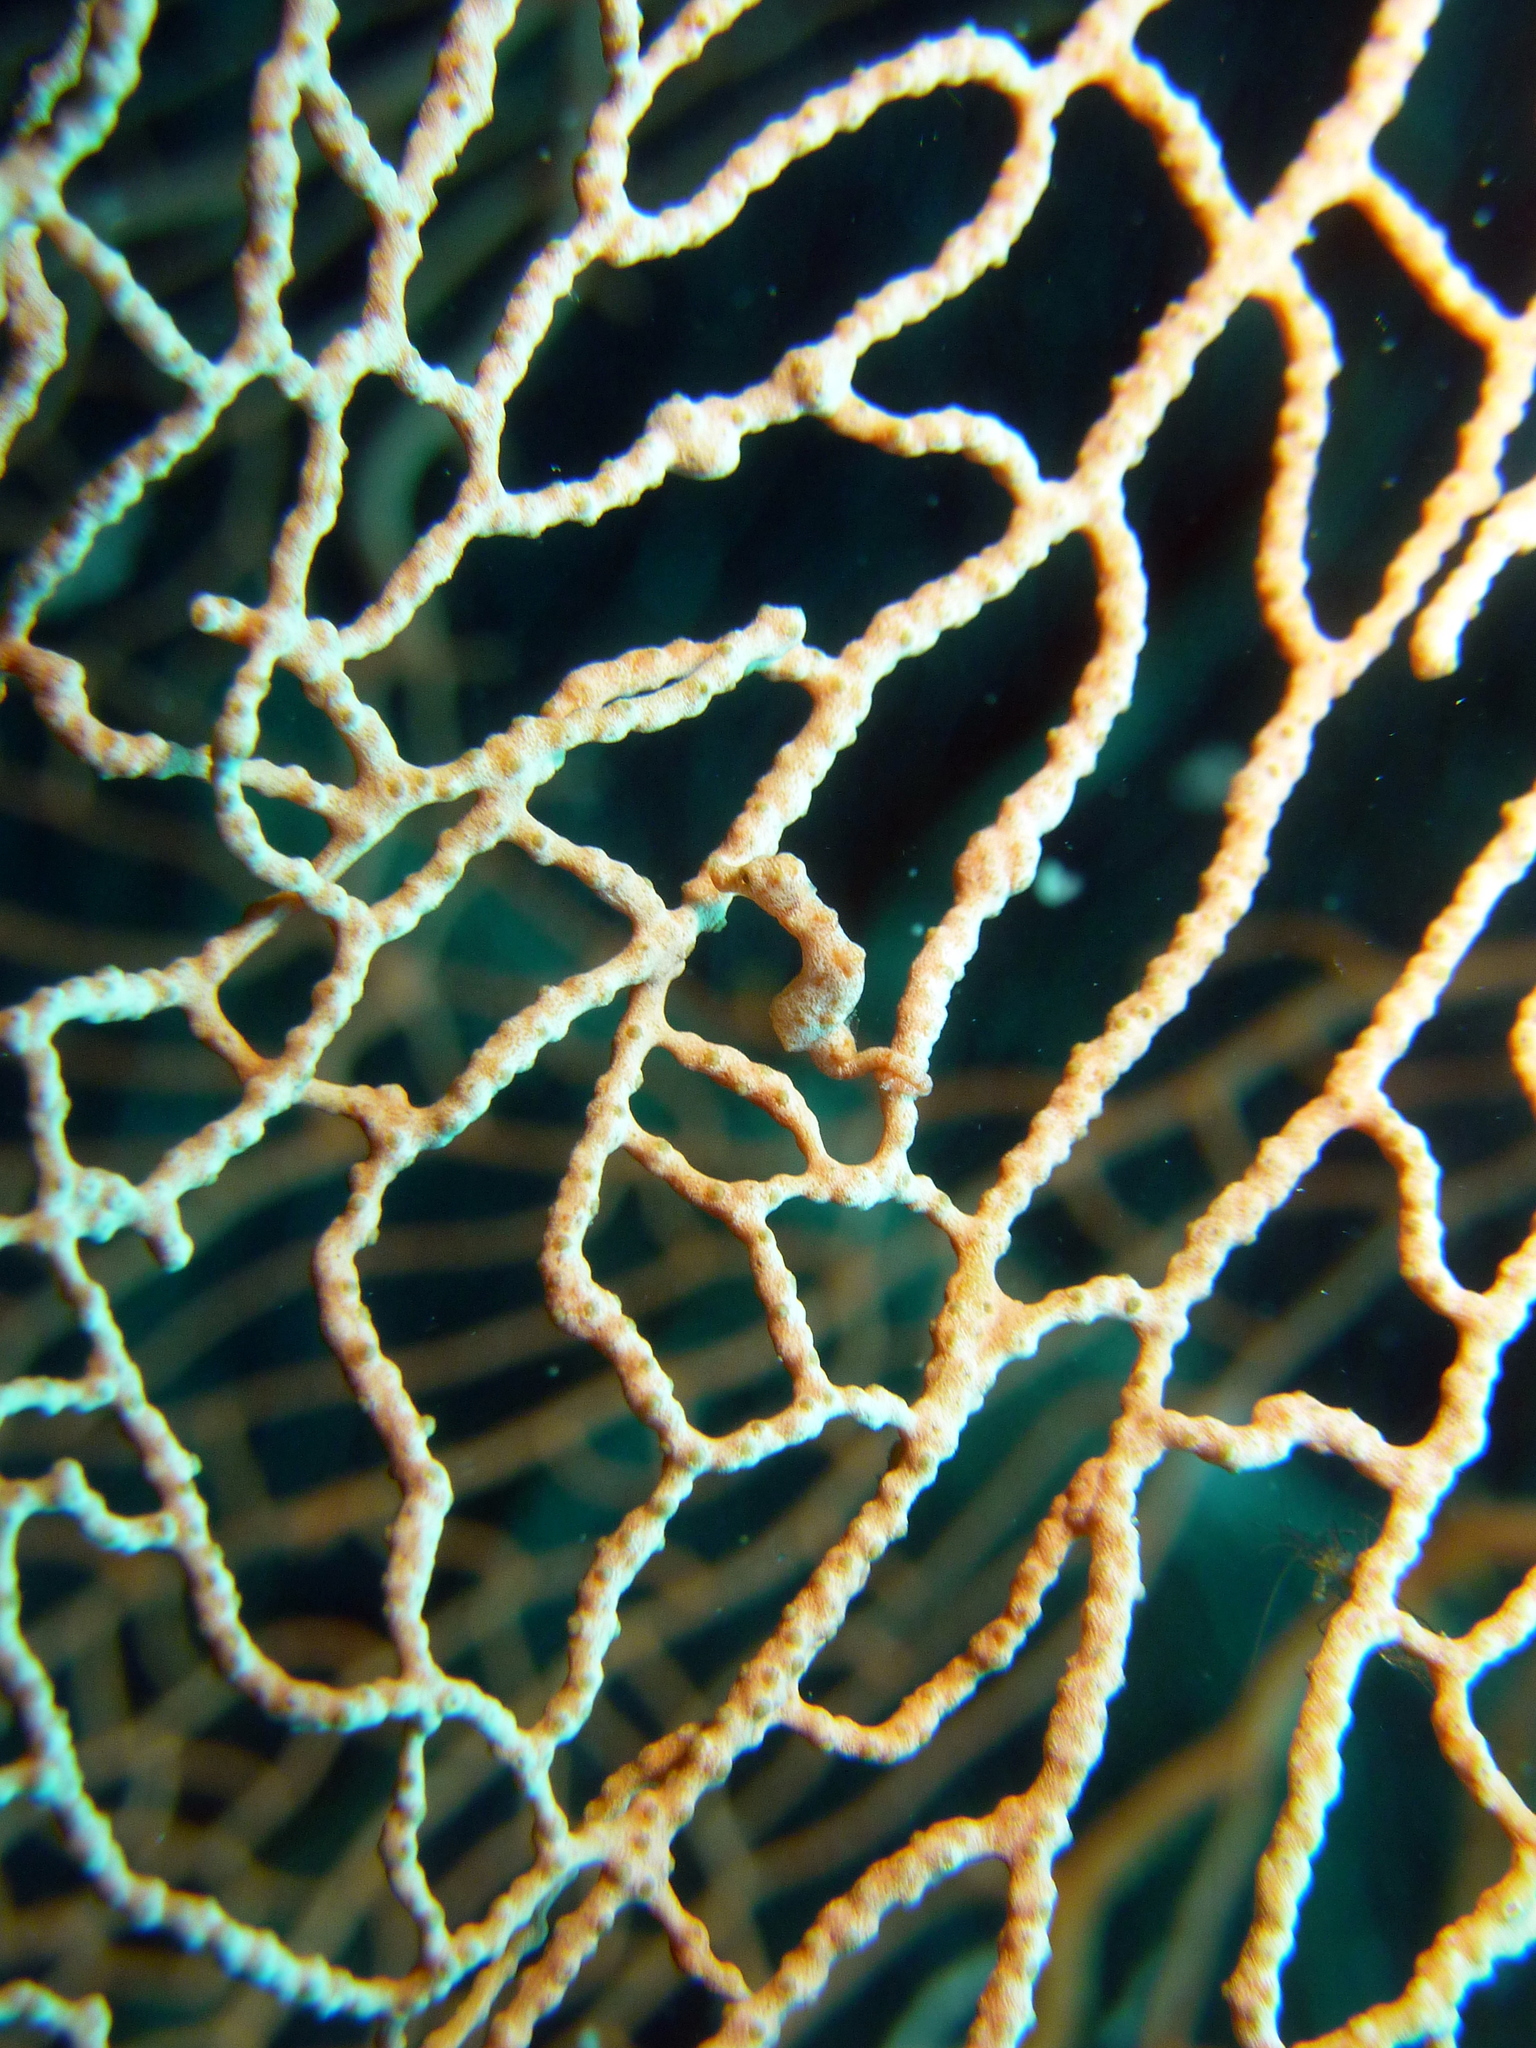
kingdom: Animalia
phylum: Chordata
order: Syngnathiformes
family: Syngnathidae
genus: Hippocampus
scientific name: Hippocampus denise
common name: Denise's pygmy seahorse
